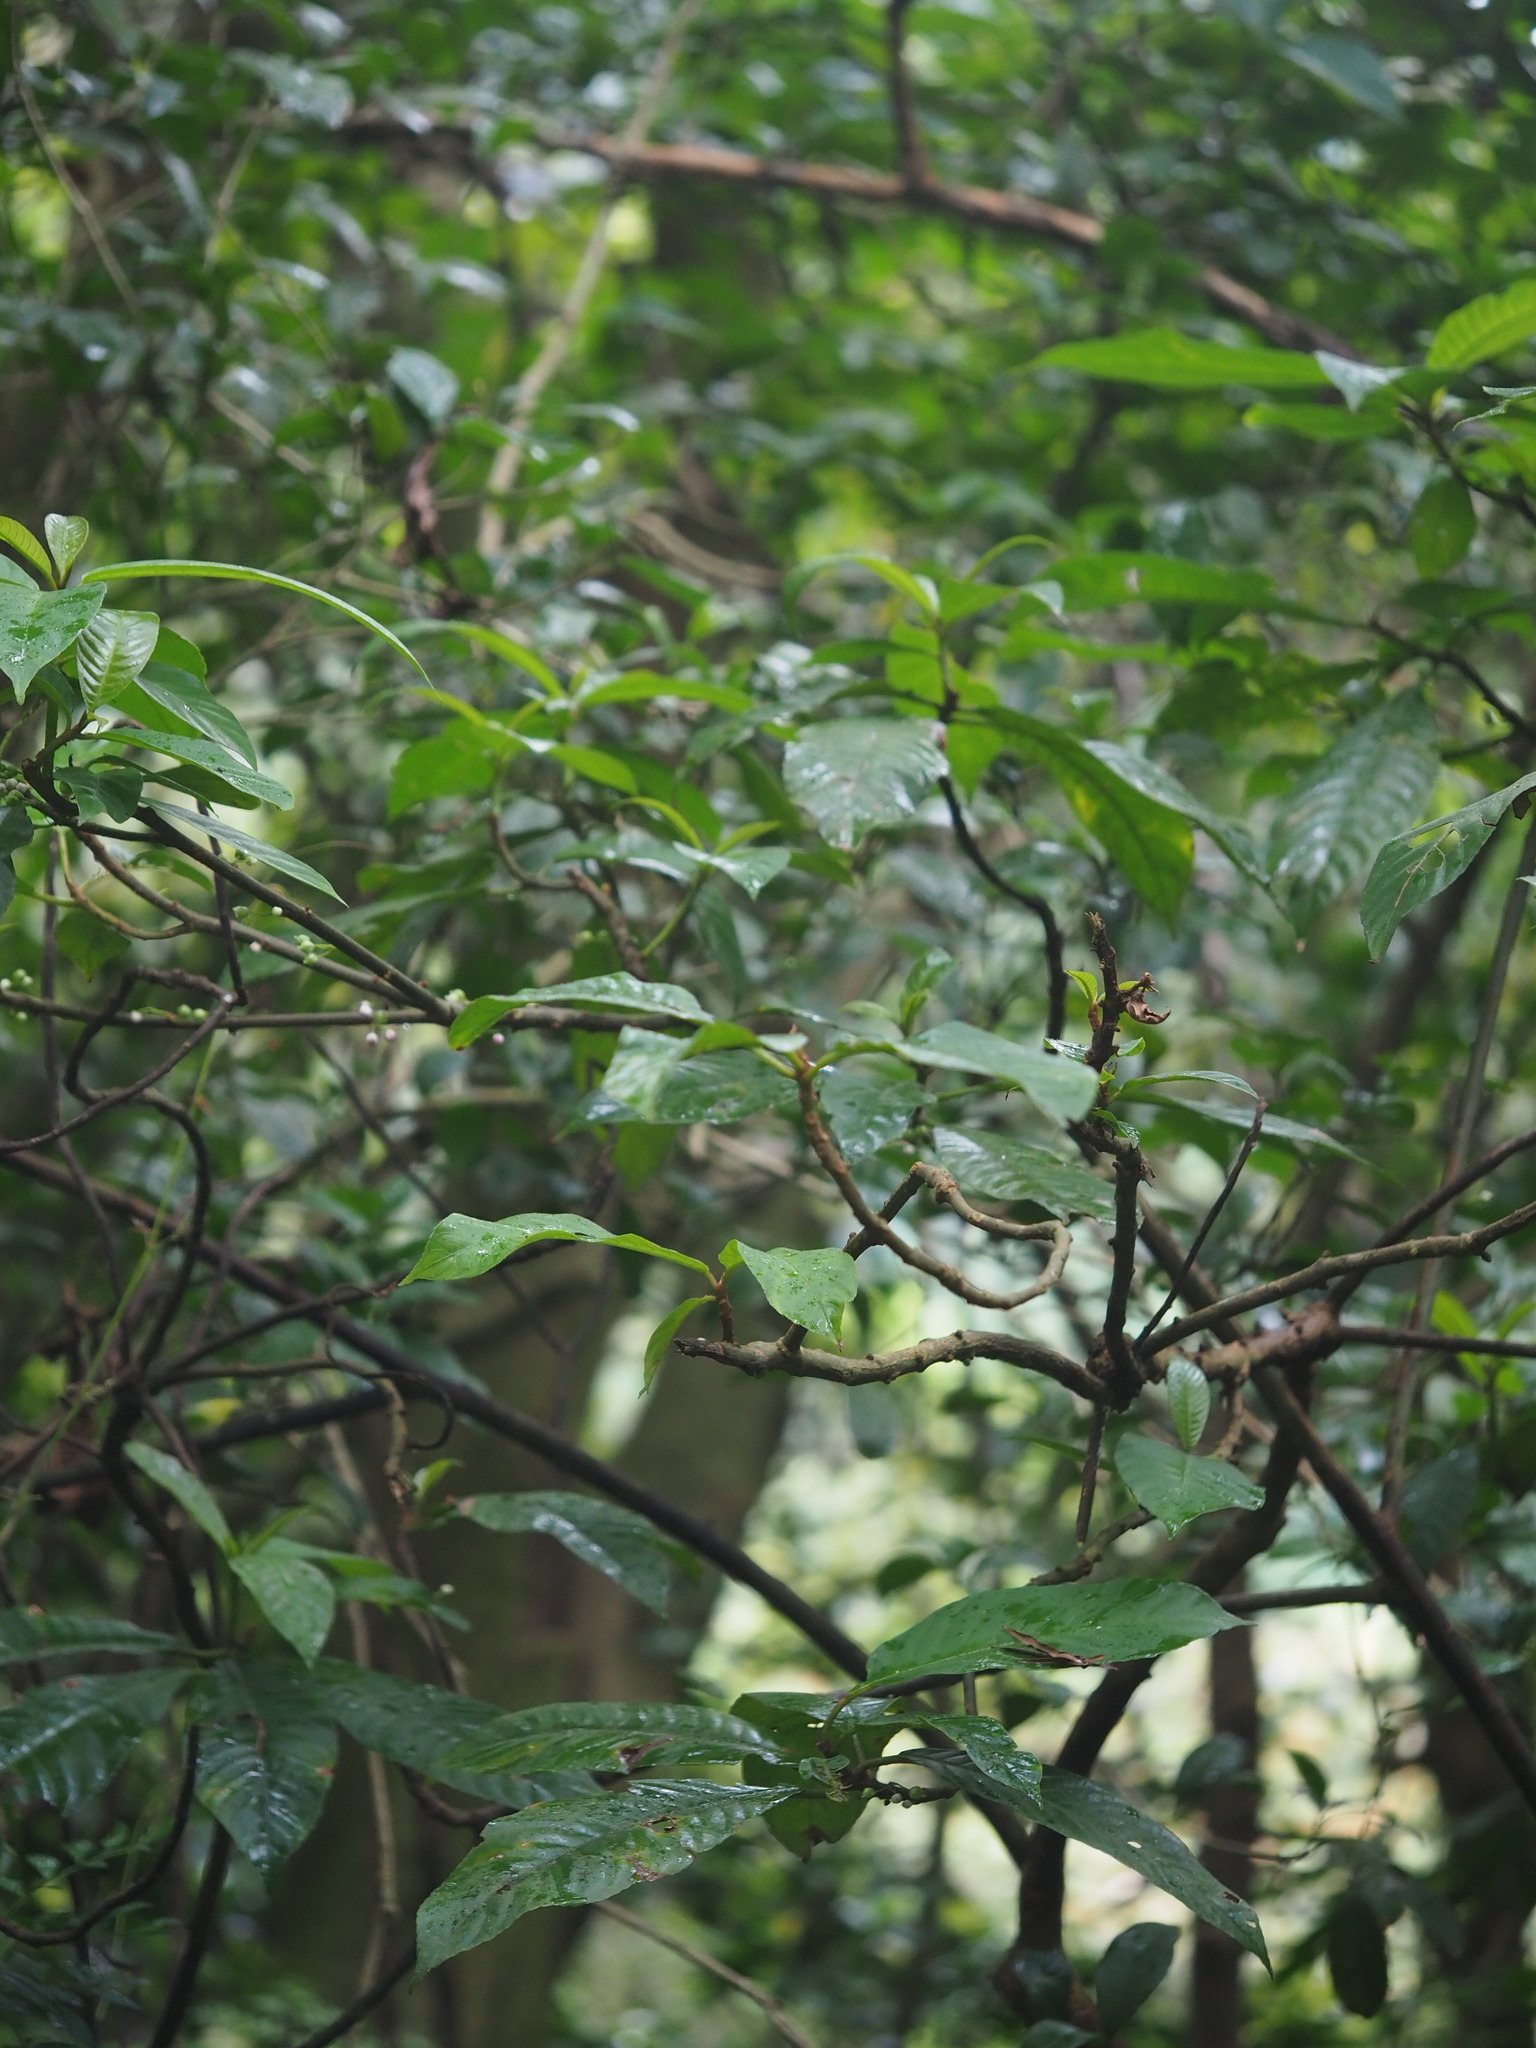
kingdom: Plantae
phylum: Tracheophyta
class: Magnoliopsida
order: Ericales
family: Actinidiaceae
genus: Saurauia
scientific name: Saurauia tristyla
